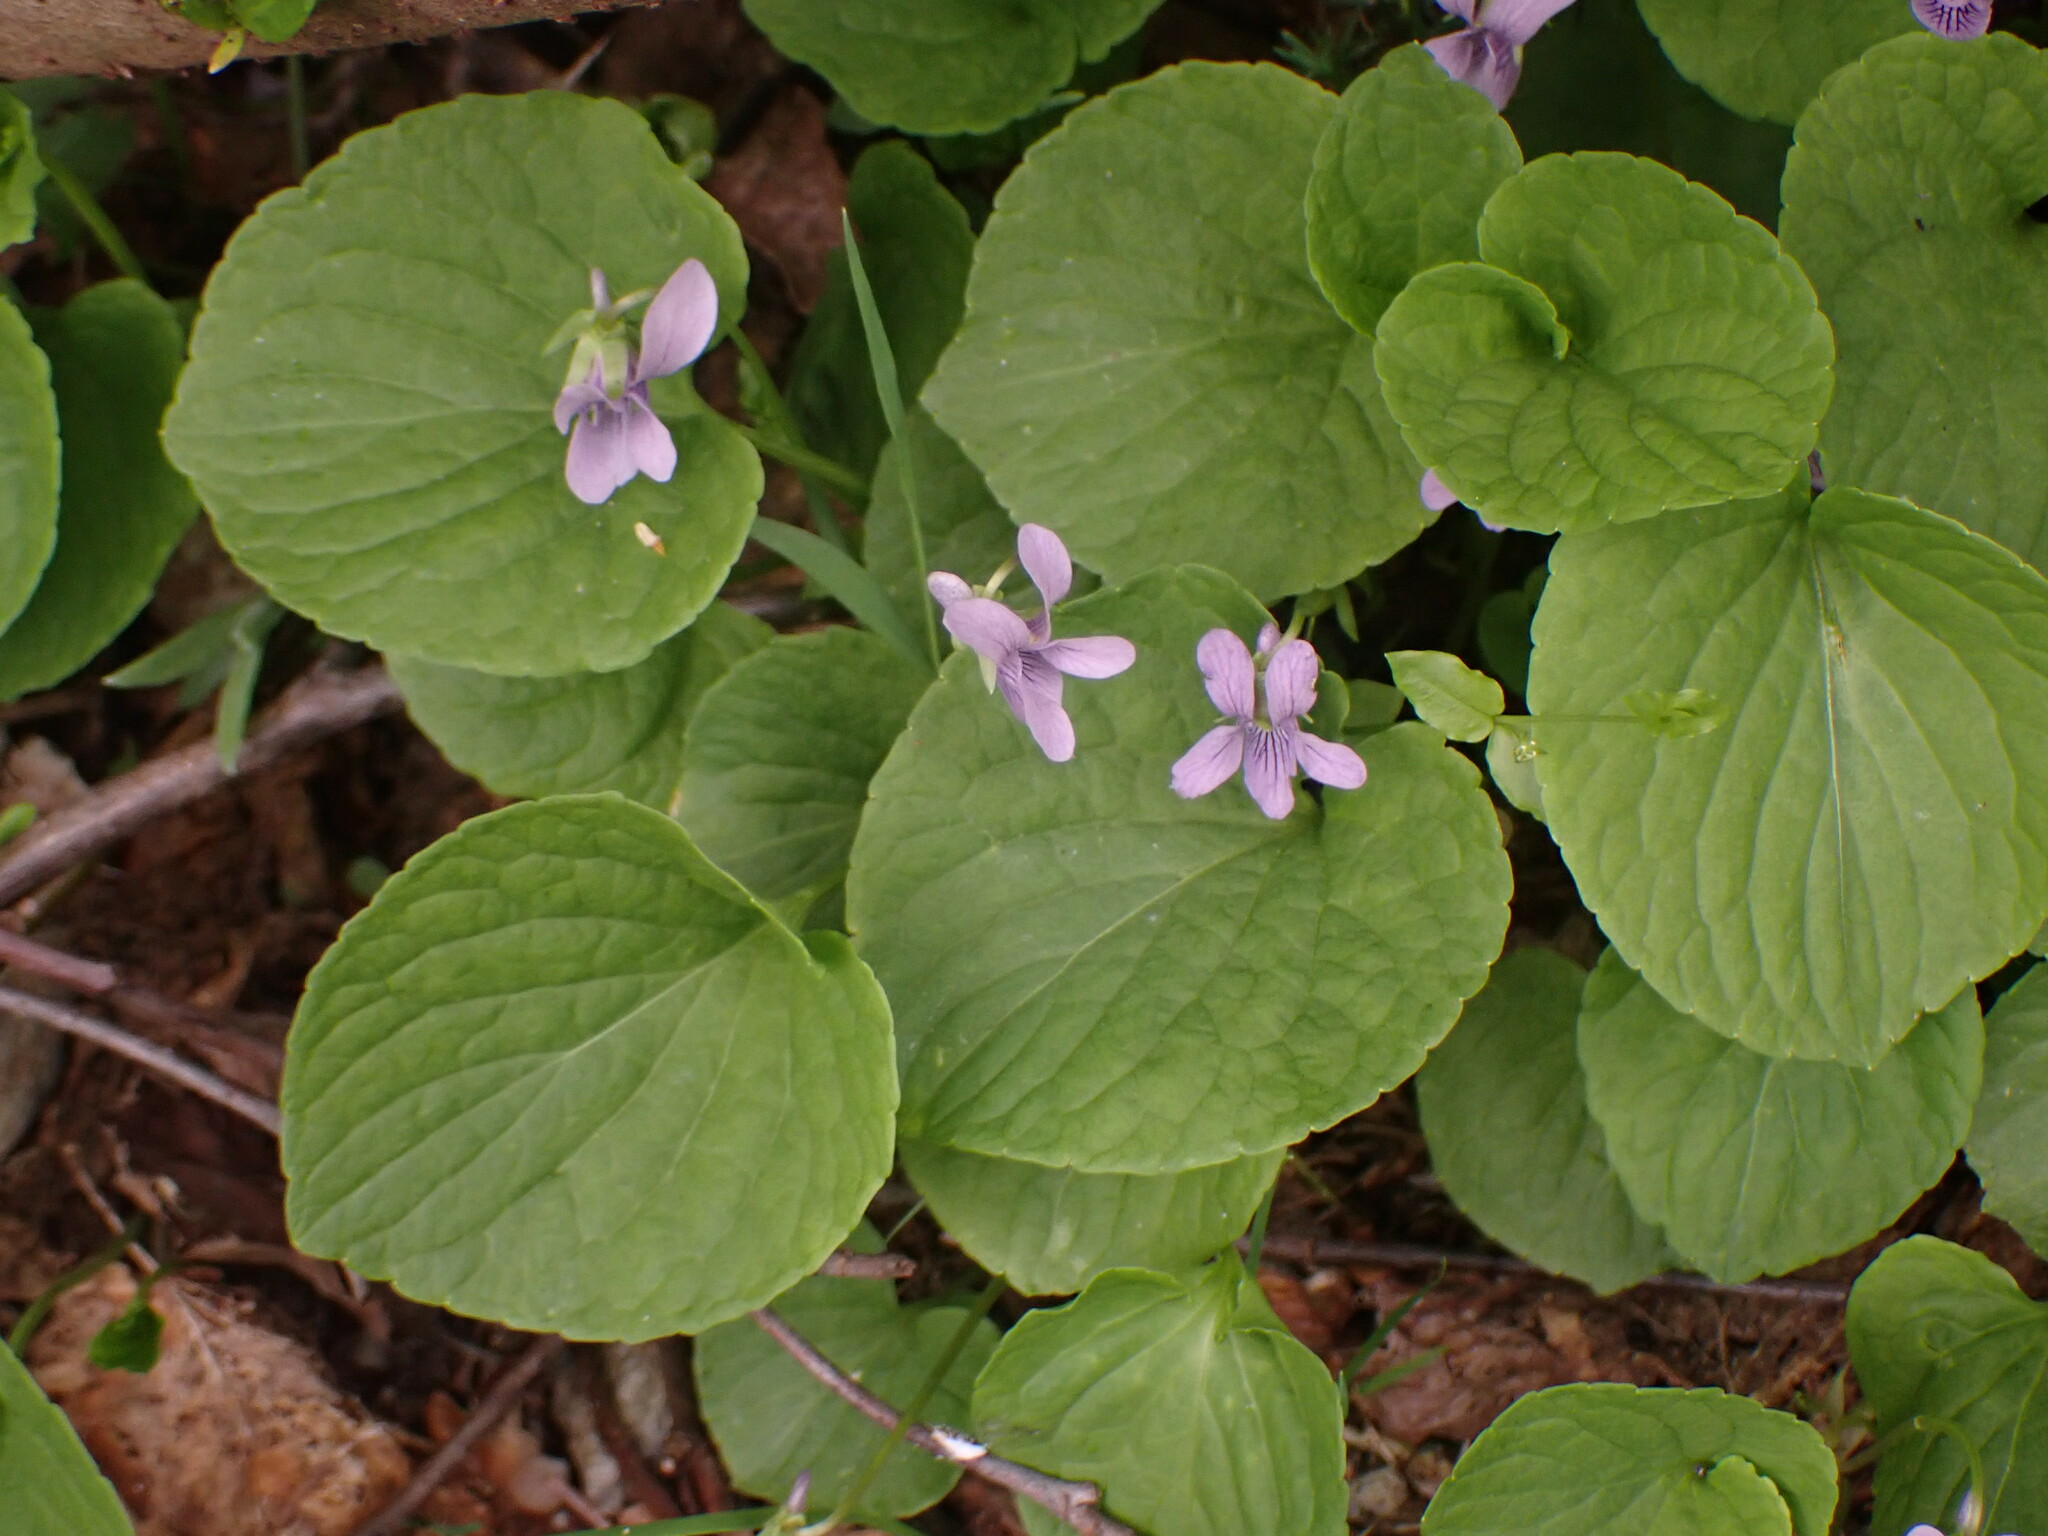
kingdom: Plantae
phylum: Tracheophyta
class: Magnoliopsida
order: Malpighiales
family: Violaceae
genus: Viola
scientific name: Viola palustris
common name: Marsh violet
